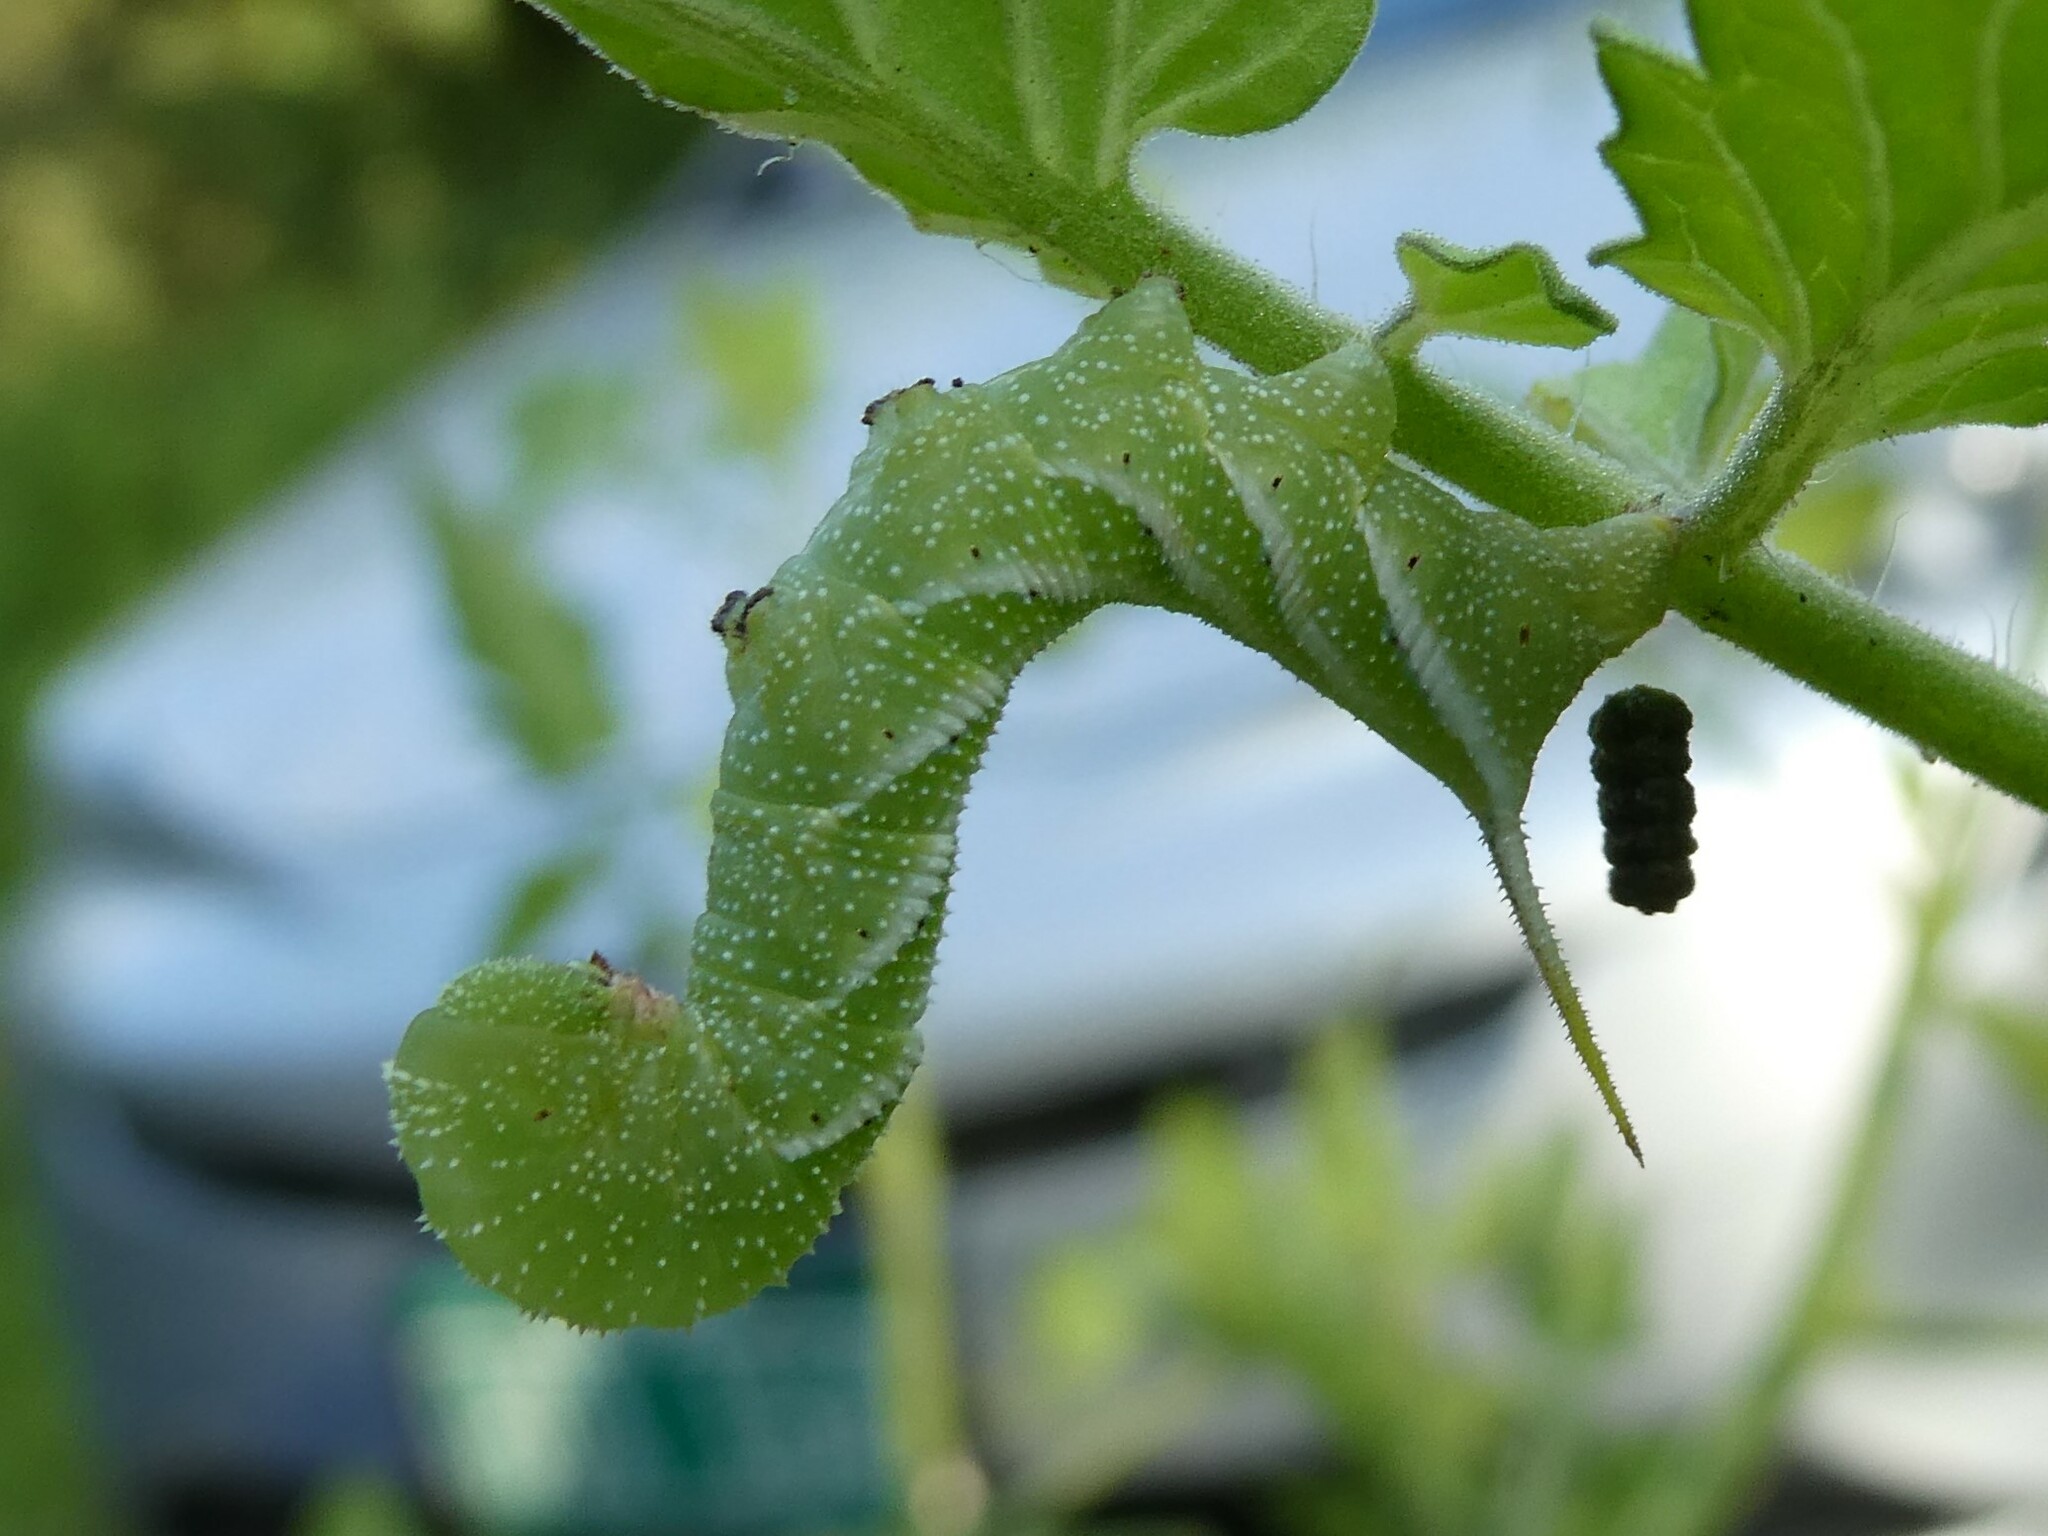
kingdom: Animalia
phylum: Arthropoda
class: Insecta
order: Lepidoptera
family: Sphingidae
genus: Manduca
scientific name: Manduca sexta
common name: Carolina sphinx
